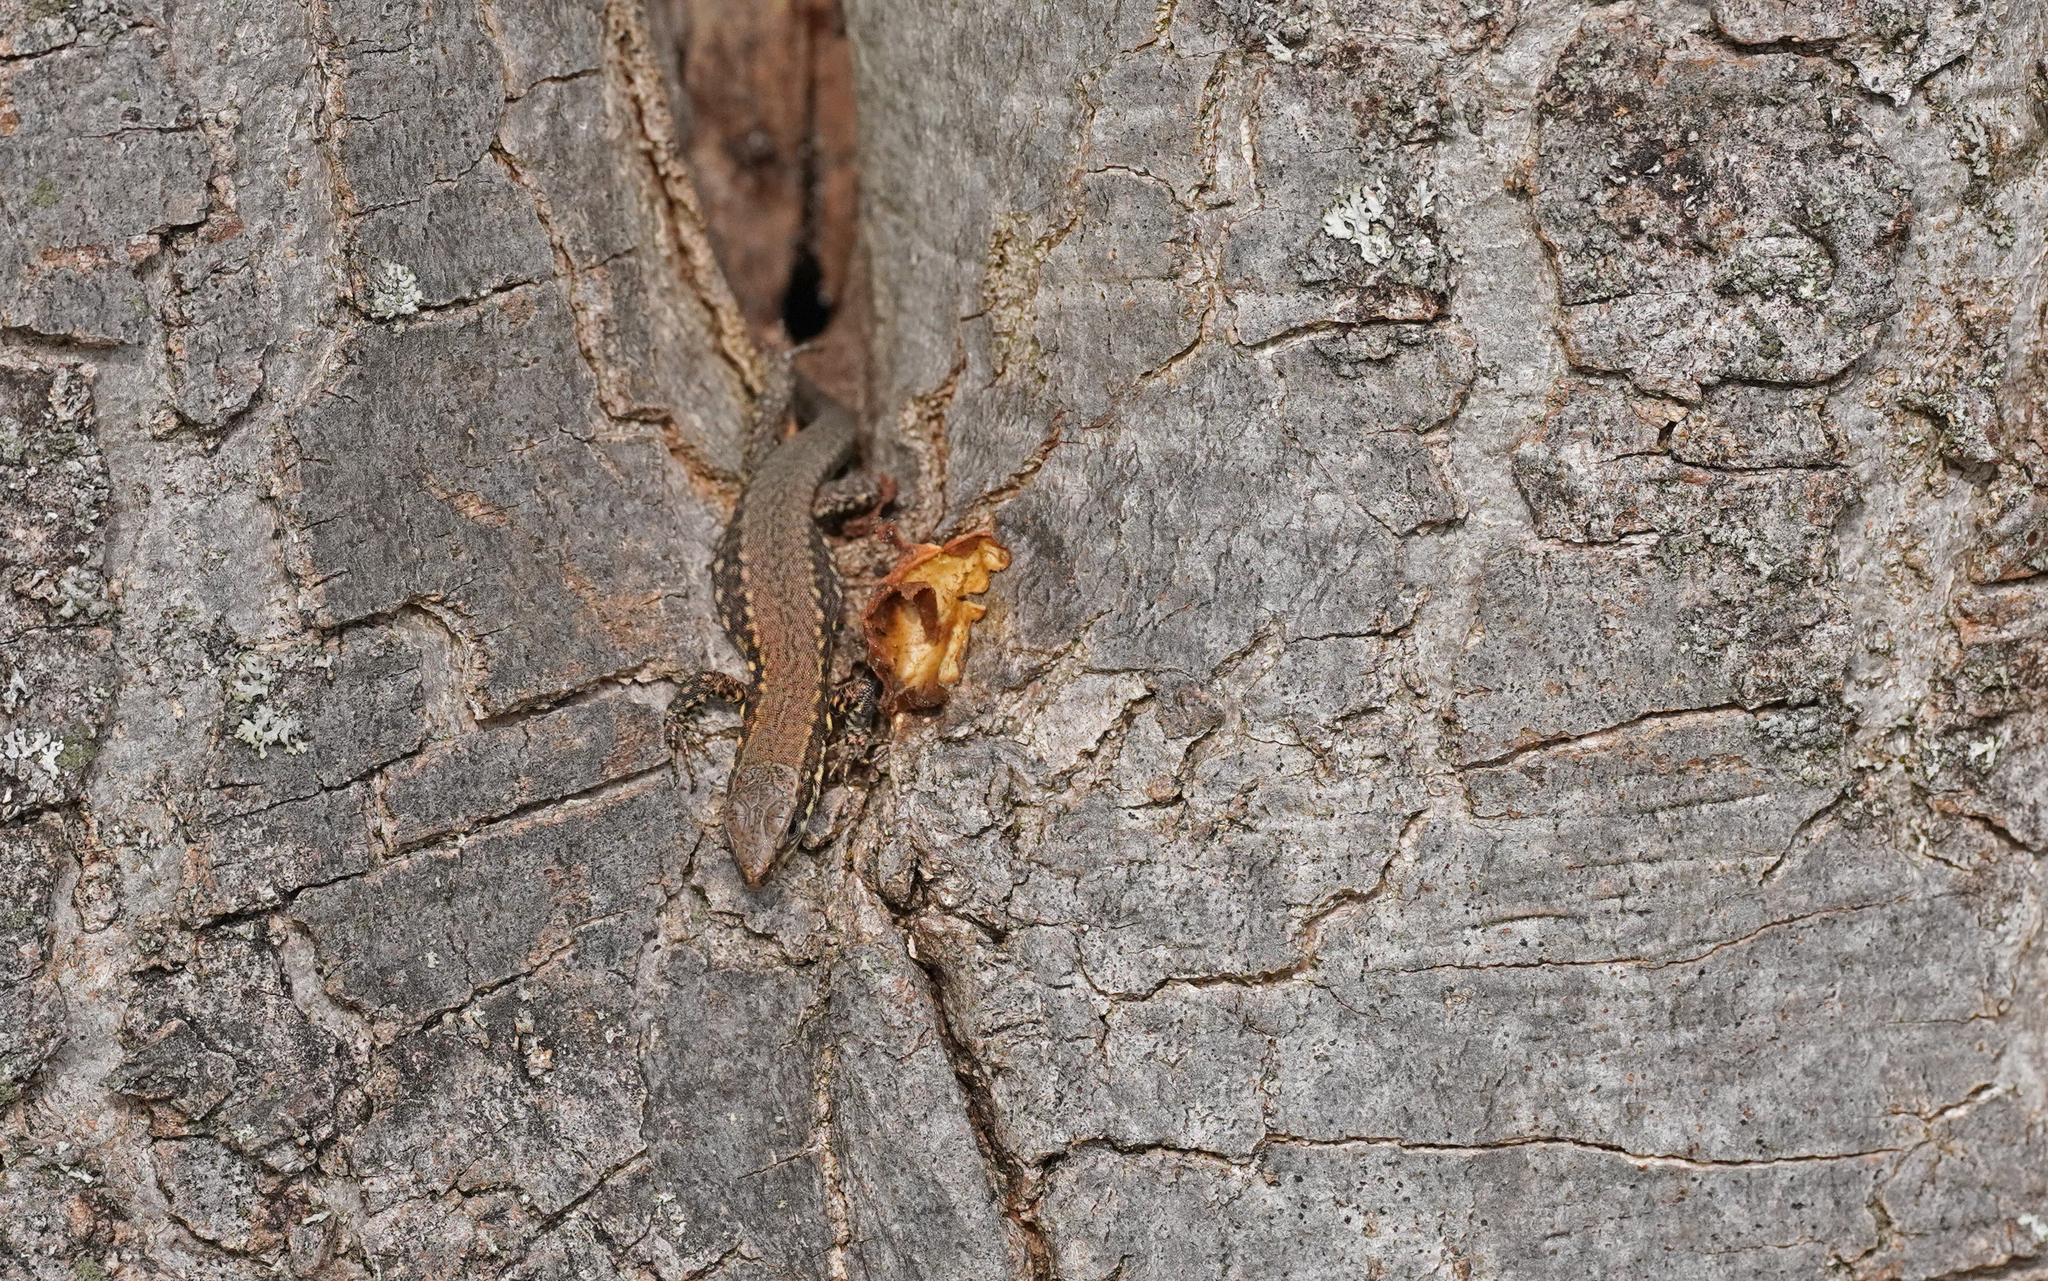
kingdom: Animalia
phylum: Chordata
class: Squamata
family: Lacertidae
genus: Podarcis
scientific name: Podarcis muralis
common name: Common wall lizard
